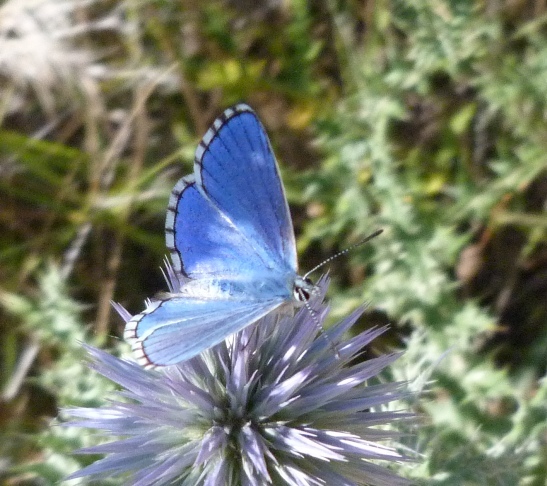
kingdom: Animalia
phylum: Arthropoda
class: Insecta
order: Lepidoptera
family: Lycaenidae
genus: Lysandra
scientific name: Lysandra bellargus
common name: Adonis blue
